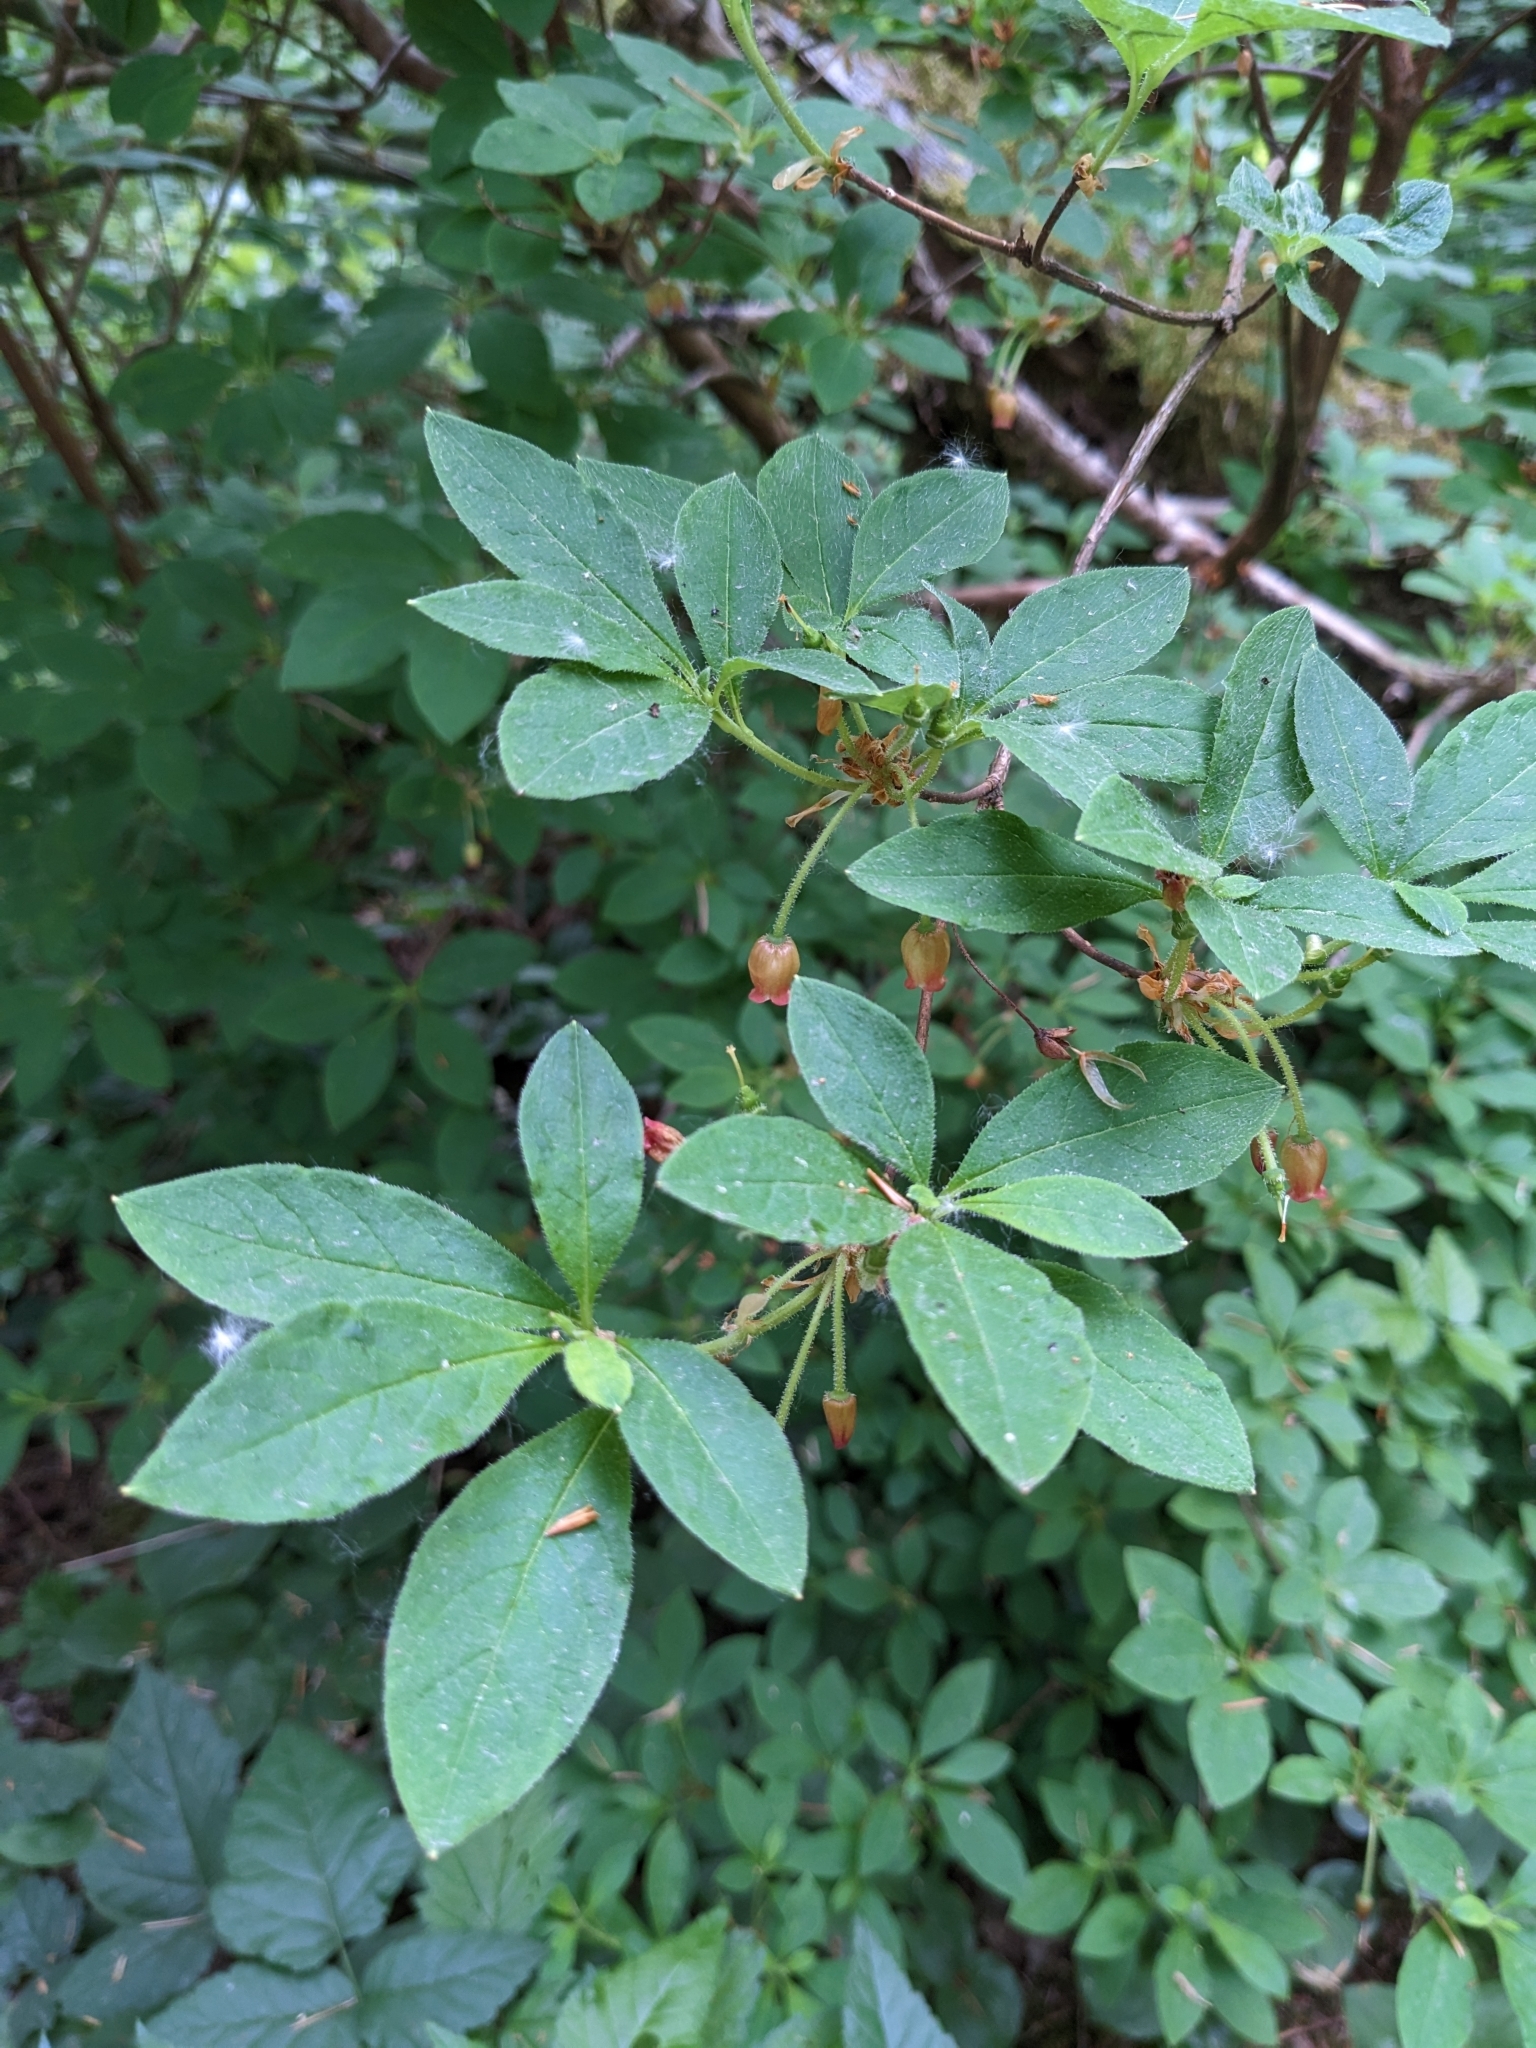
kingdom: Plantae
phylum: Tracheophyta
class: Magnoliopsida
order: Ericales
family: Ericaceae
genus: Rhododendron
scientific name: Rhododendron menziesii
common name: Pacific menziesia
